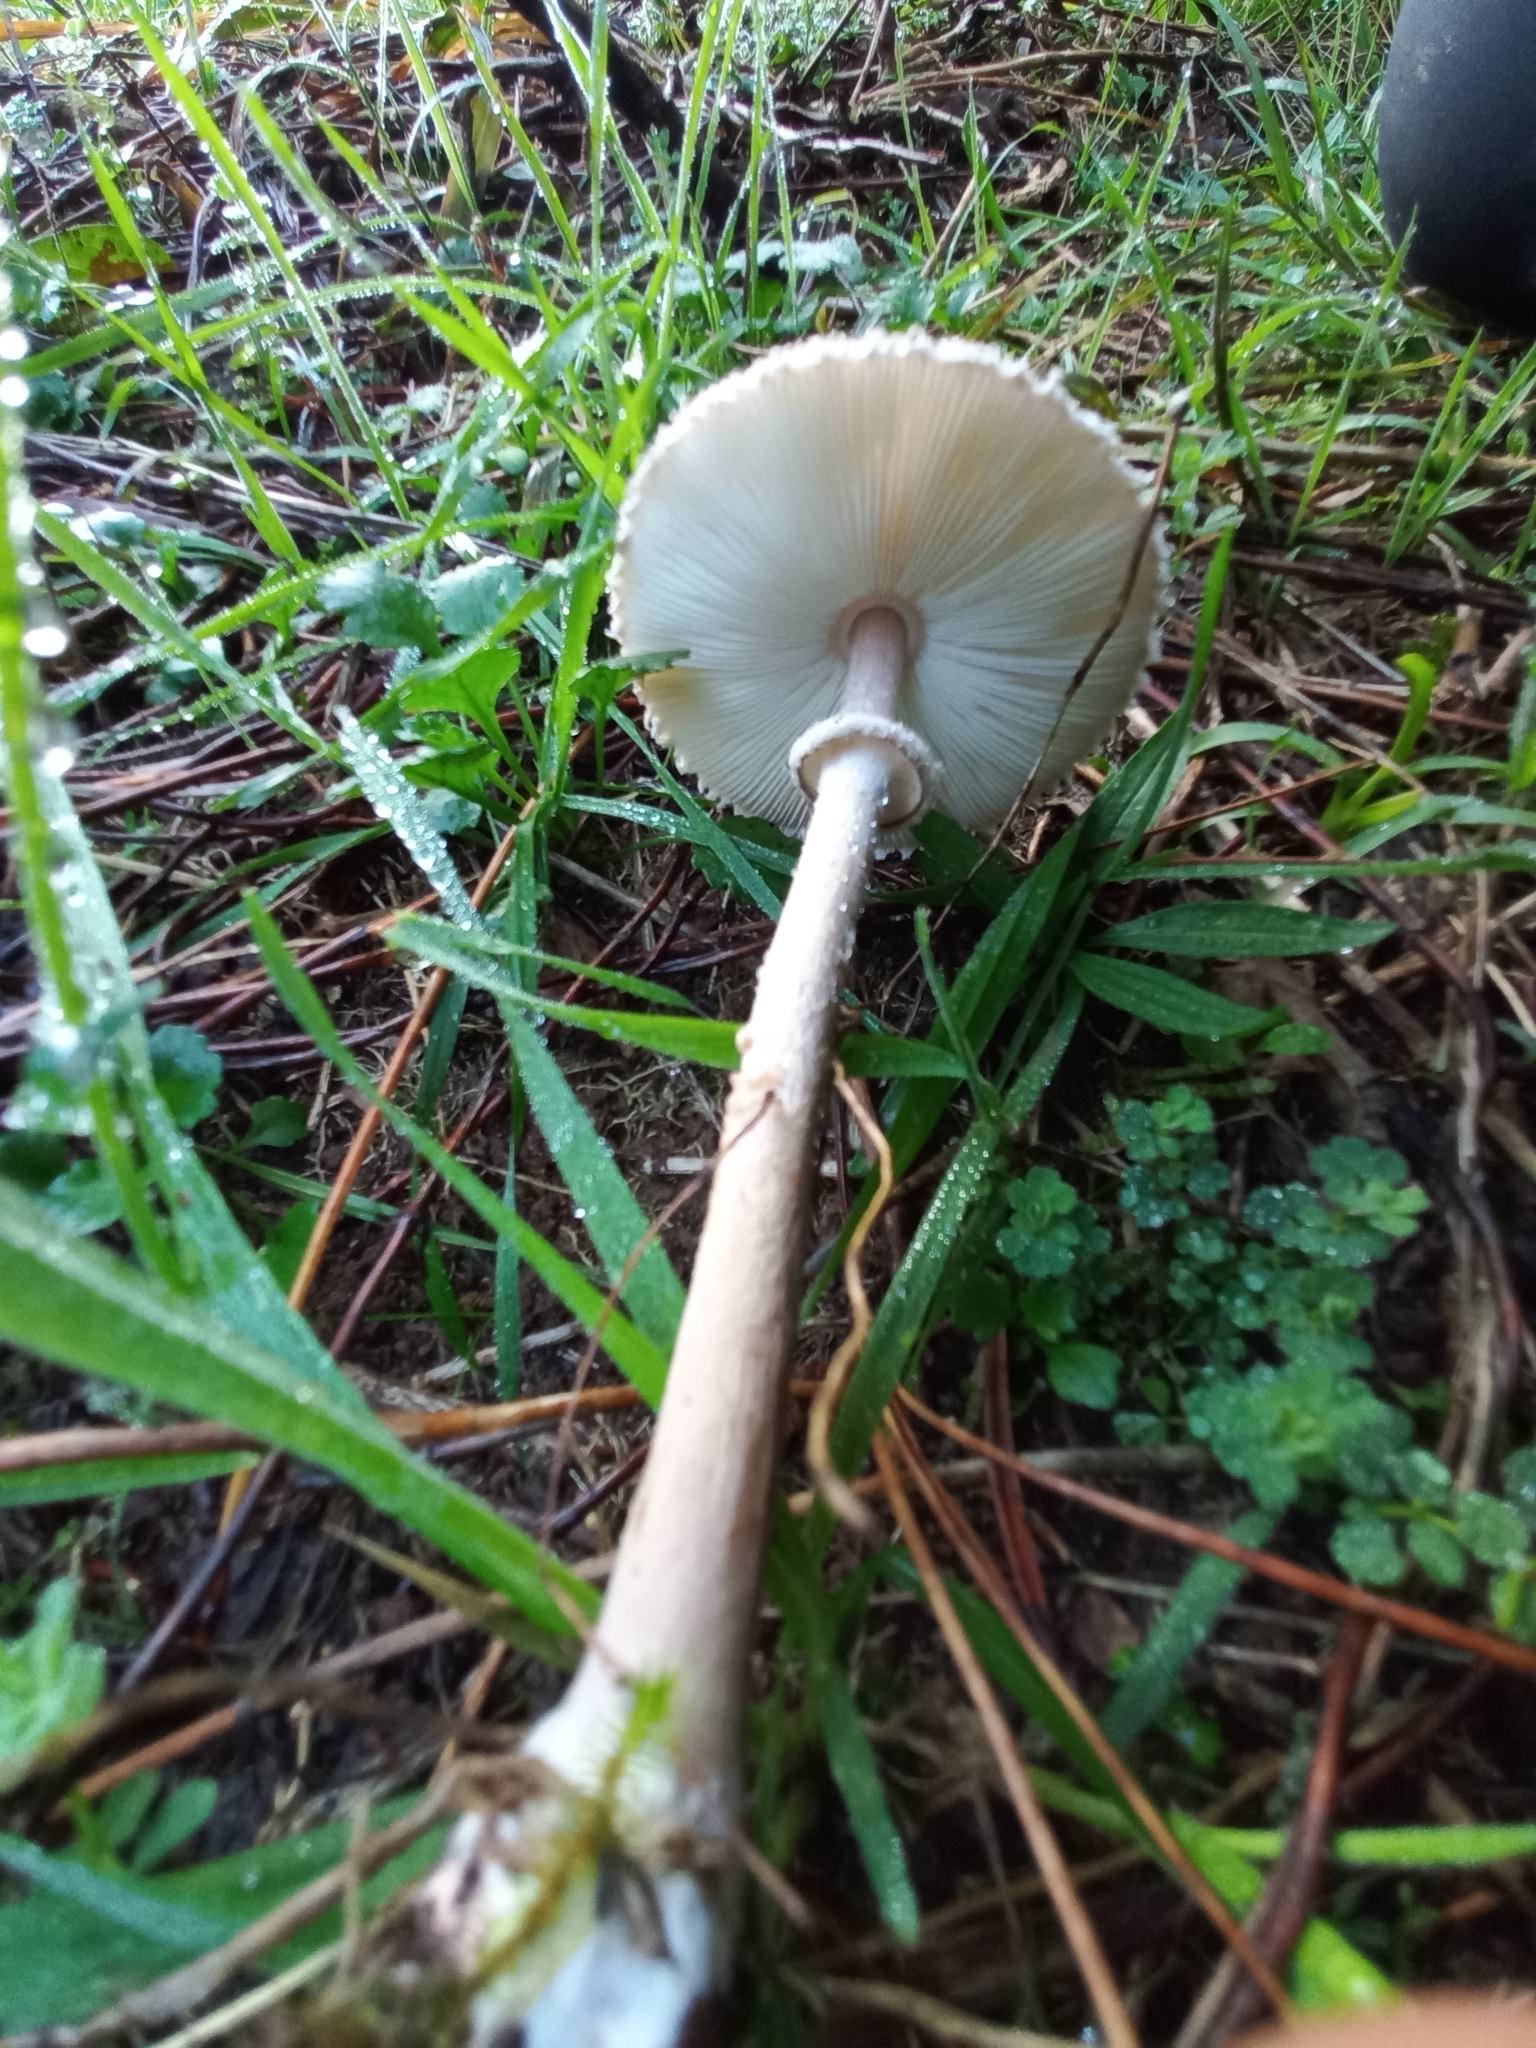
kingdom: Fungi
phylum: Basidiomycota
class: Agaricomycetes
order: Agaricales
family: Agaricaceae
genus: Macrolepiota
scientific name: Macrolepiota clelandii
